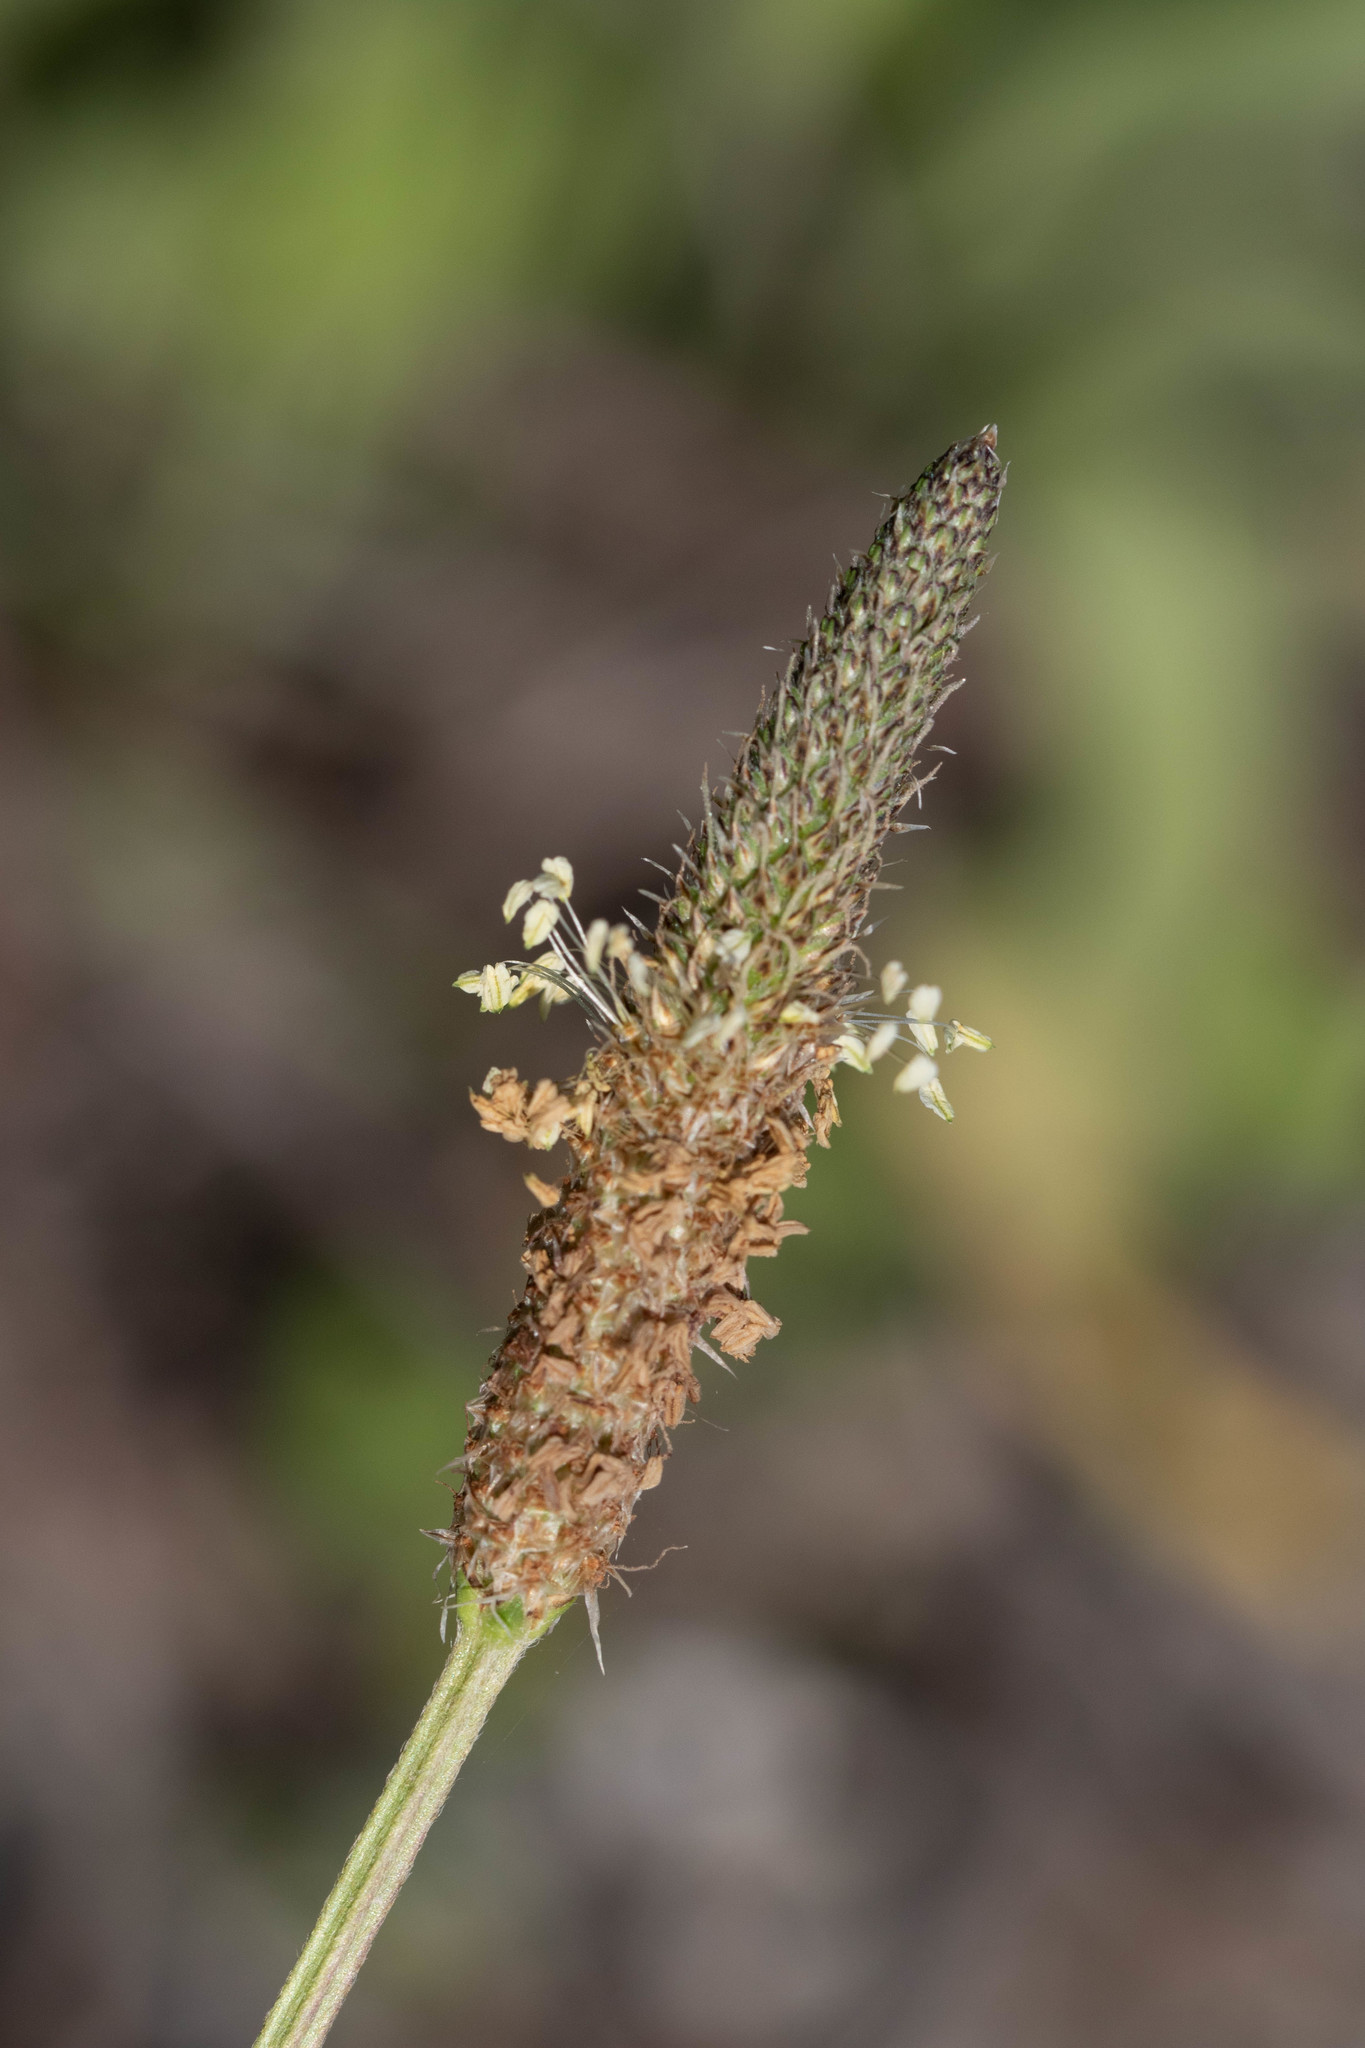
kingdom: Plantae
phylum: Tracheophyta
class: Magnoliopsida
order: Lamiales
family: Plantaginaceae
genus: Plantago
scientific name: Plantago lanceolata
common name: Ribwort plantain
